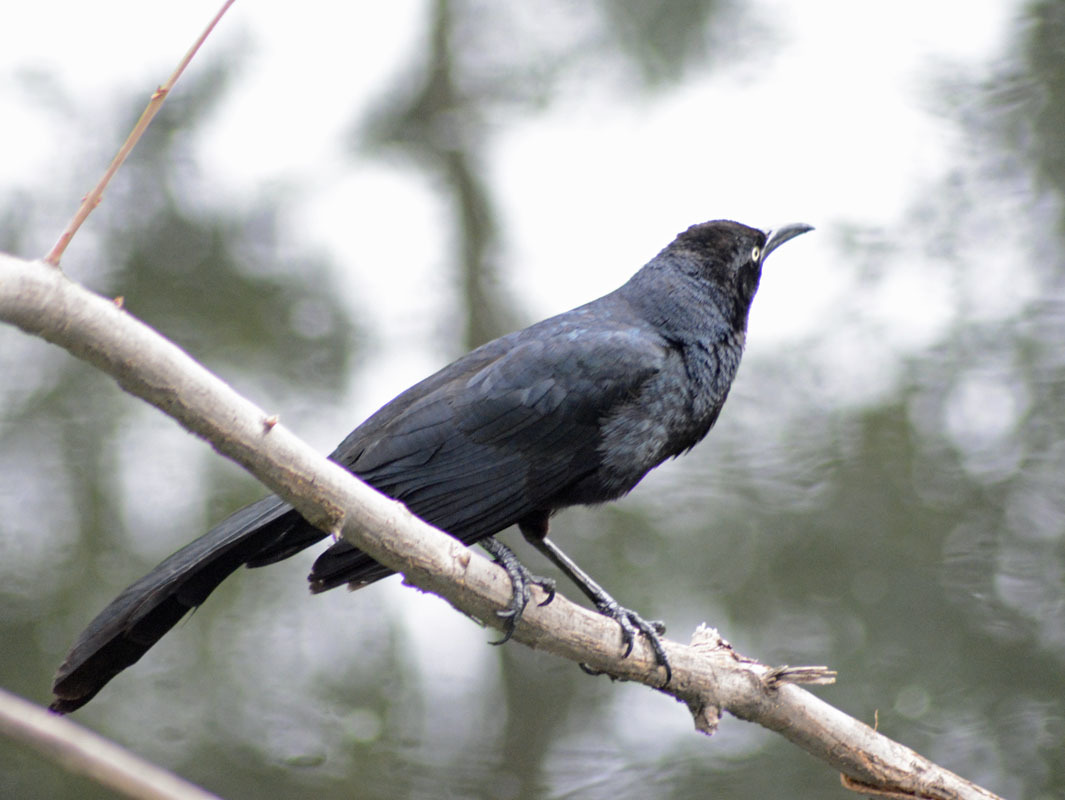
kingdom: Animalia
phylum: Chordata
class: Aves
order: Passeriformes
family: Icteridae
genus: Quiscalus
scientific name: Quiscalus mexicanus
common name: Great-tailed grackle
